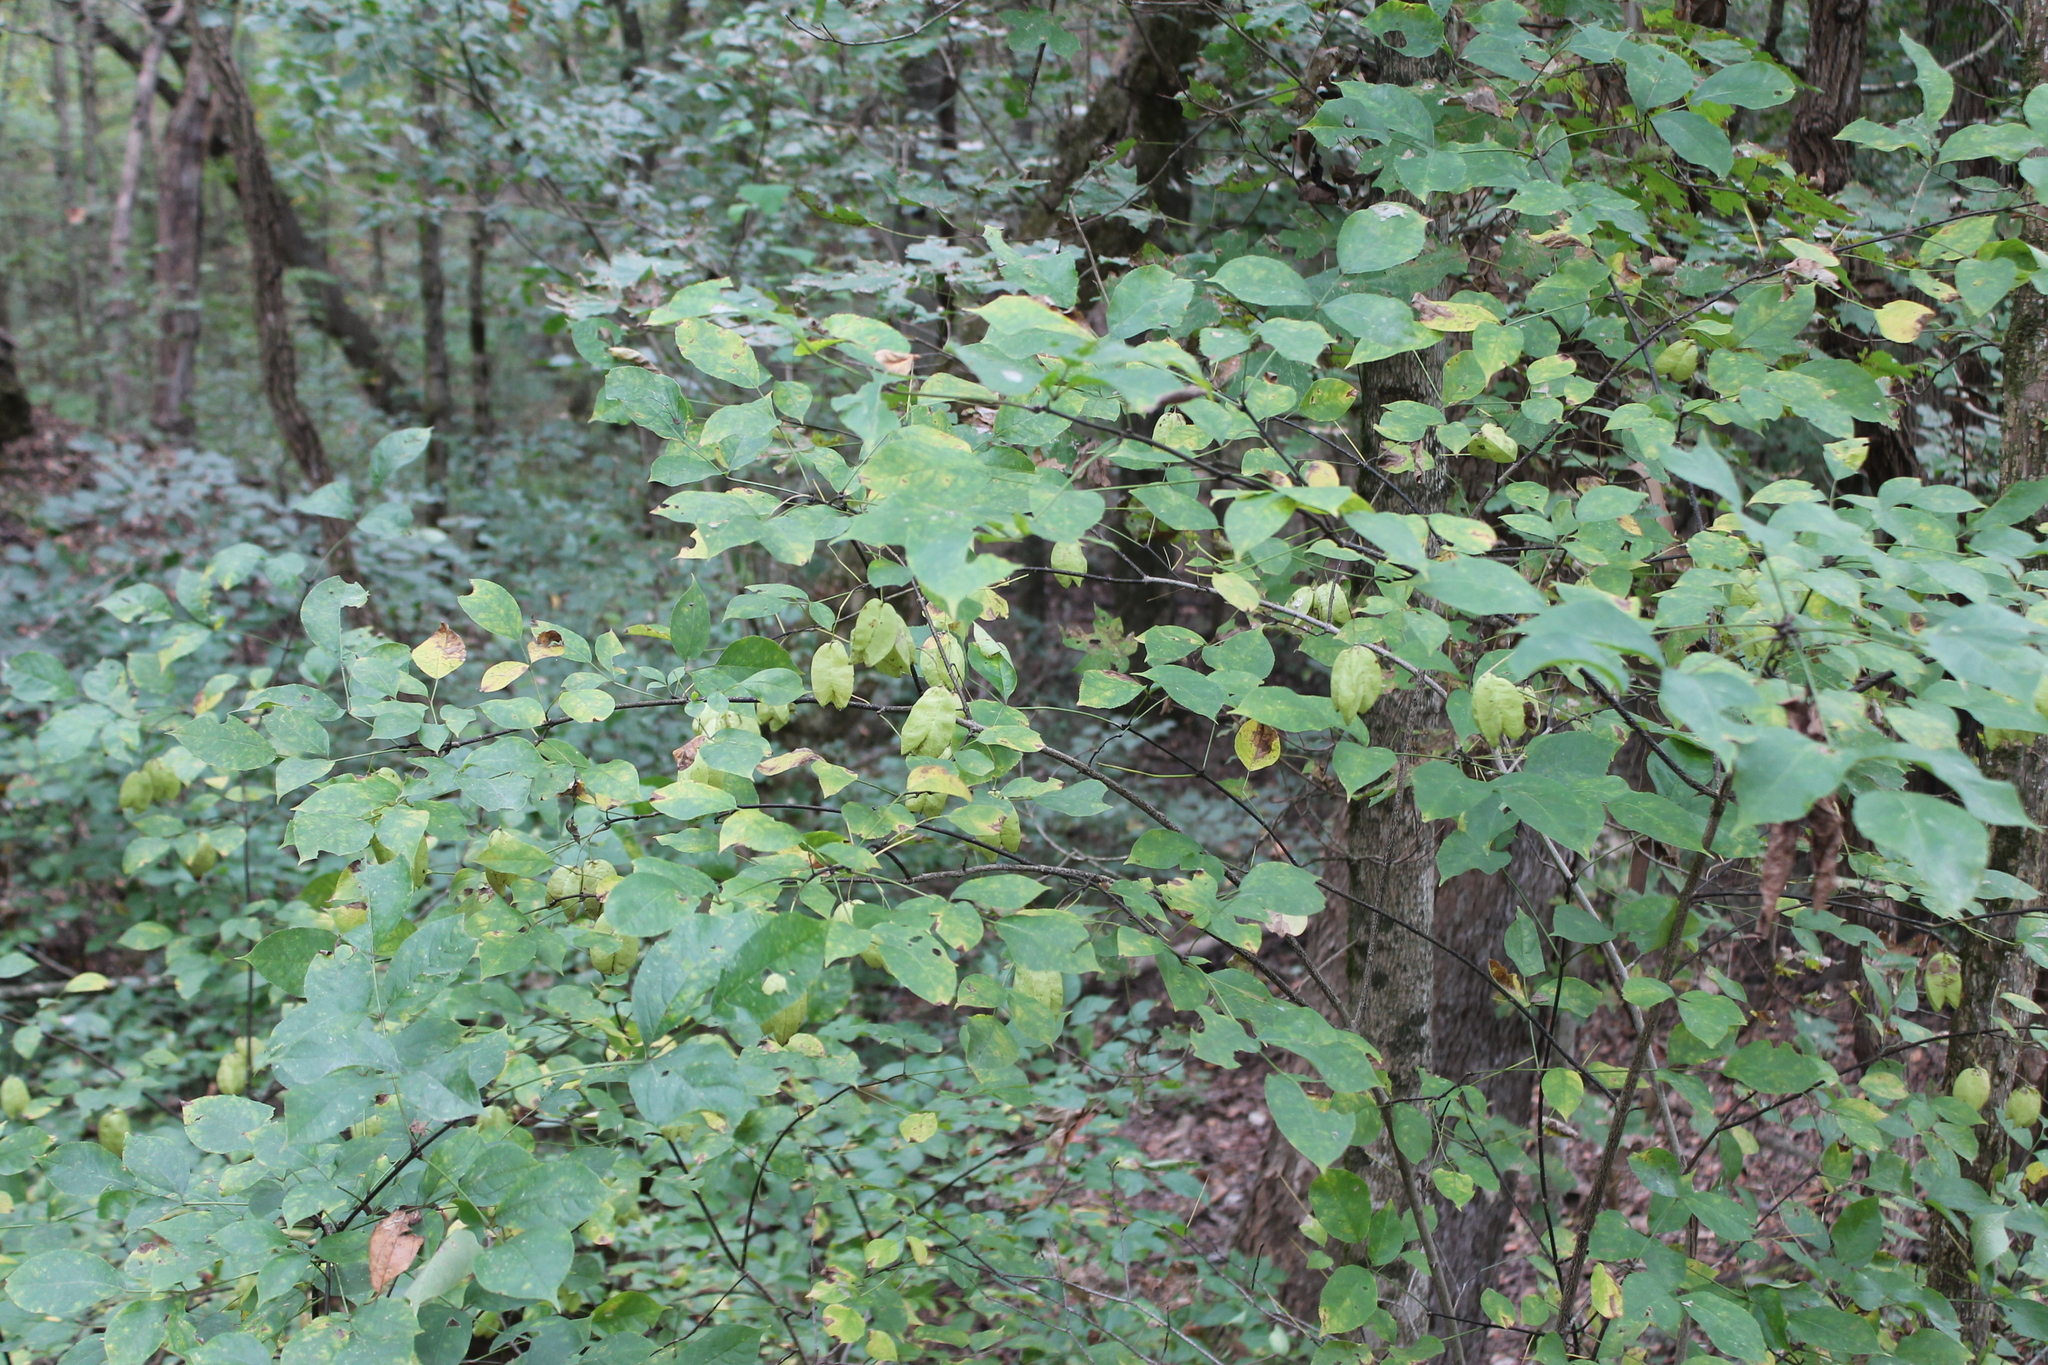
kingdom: Plantae
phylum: Tracheophyta
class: Magnoliopsida
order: Crossosomatales
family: Staphyleaceae
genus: Staphylea
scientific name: Staphylea trifolia
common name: American bladdernut
